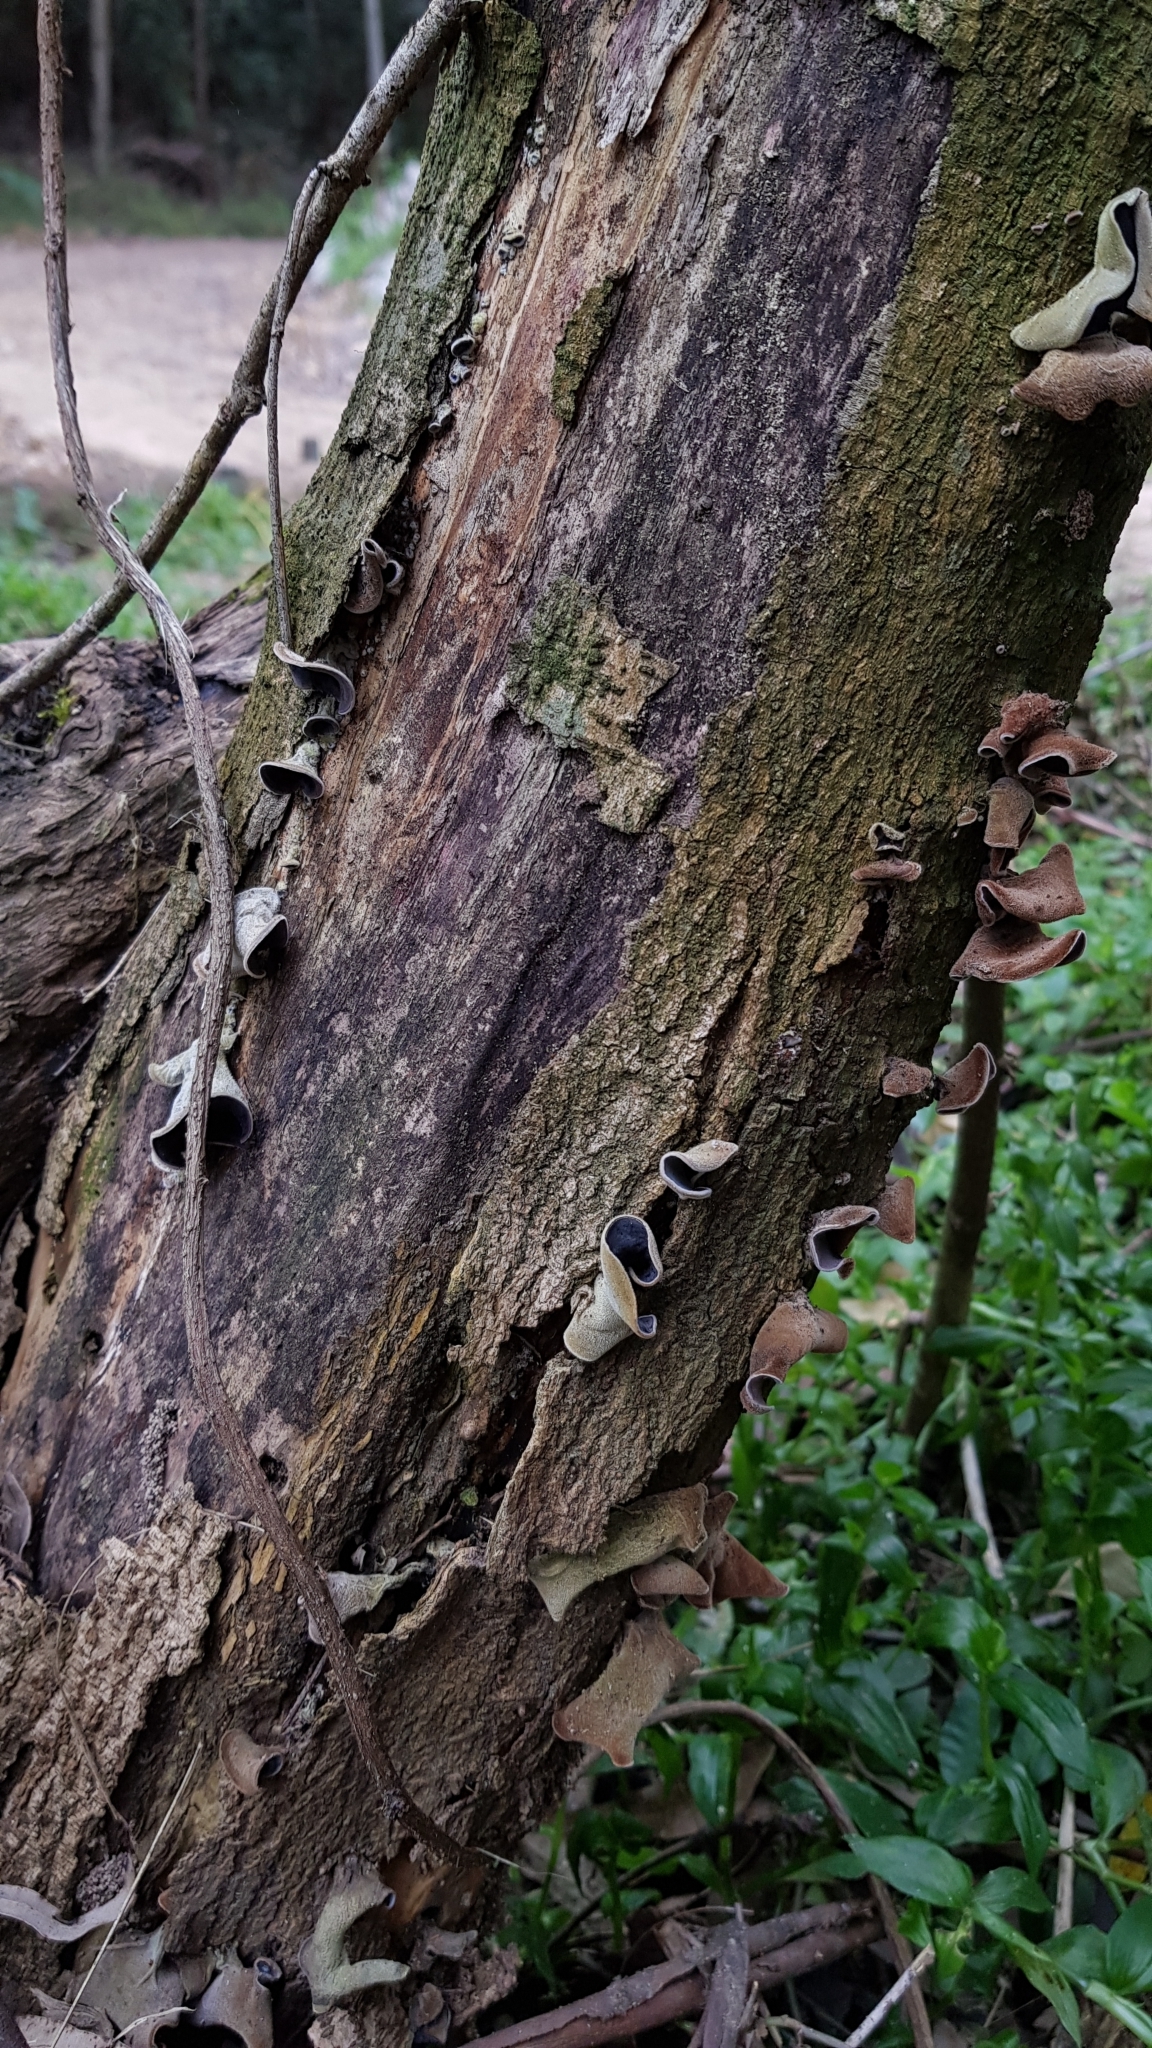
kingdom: Fungi
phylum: Basidiomycota
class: Agaricomycetes
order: Auriculariales
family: Auriculariaceae
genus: Auricularia
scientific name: Auricularia cornea
